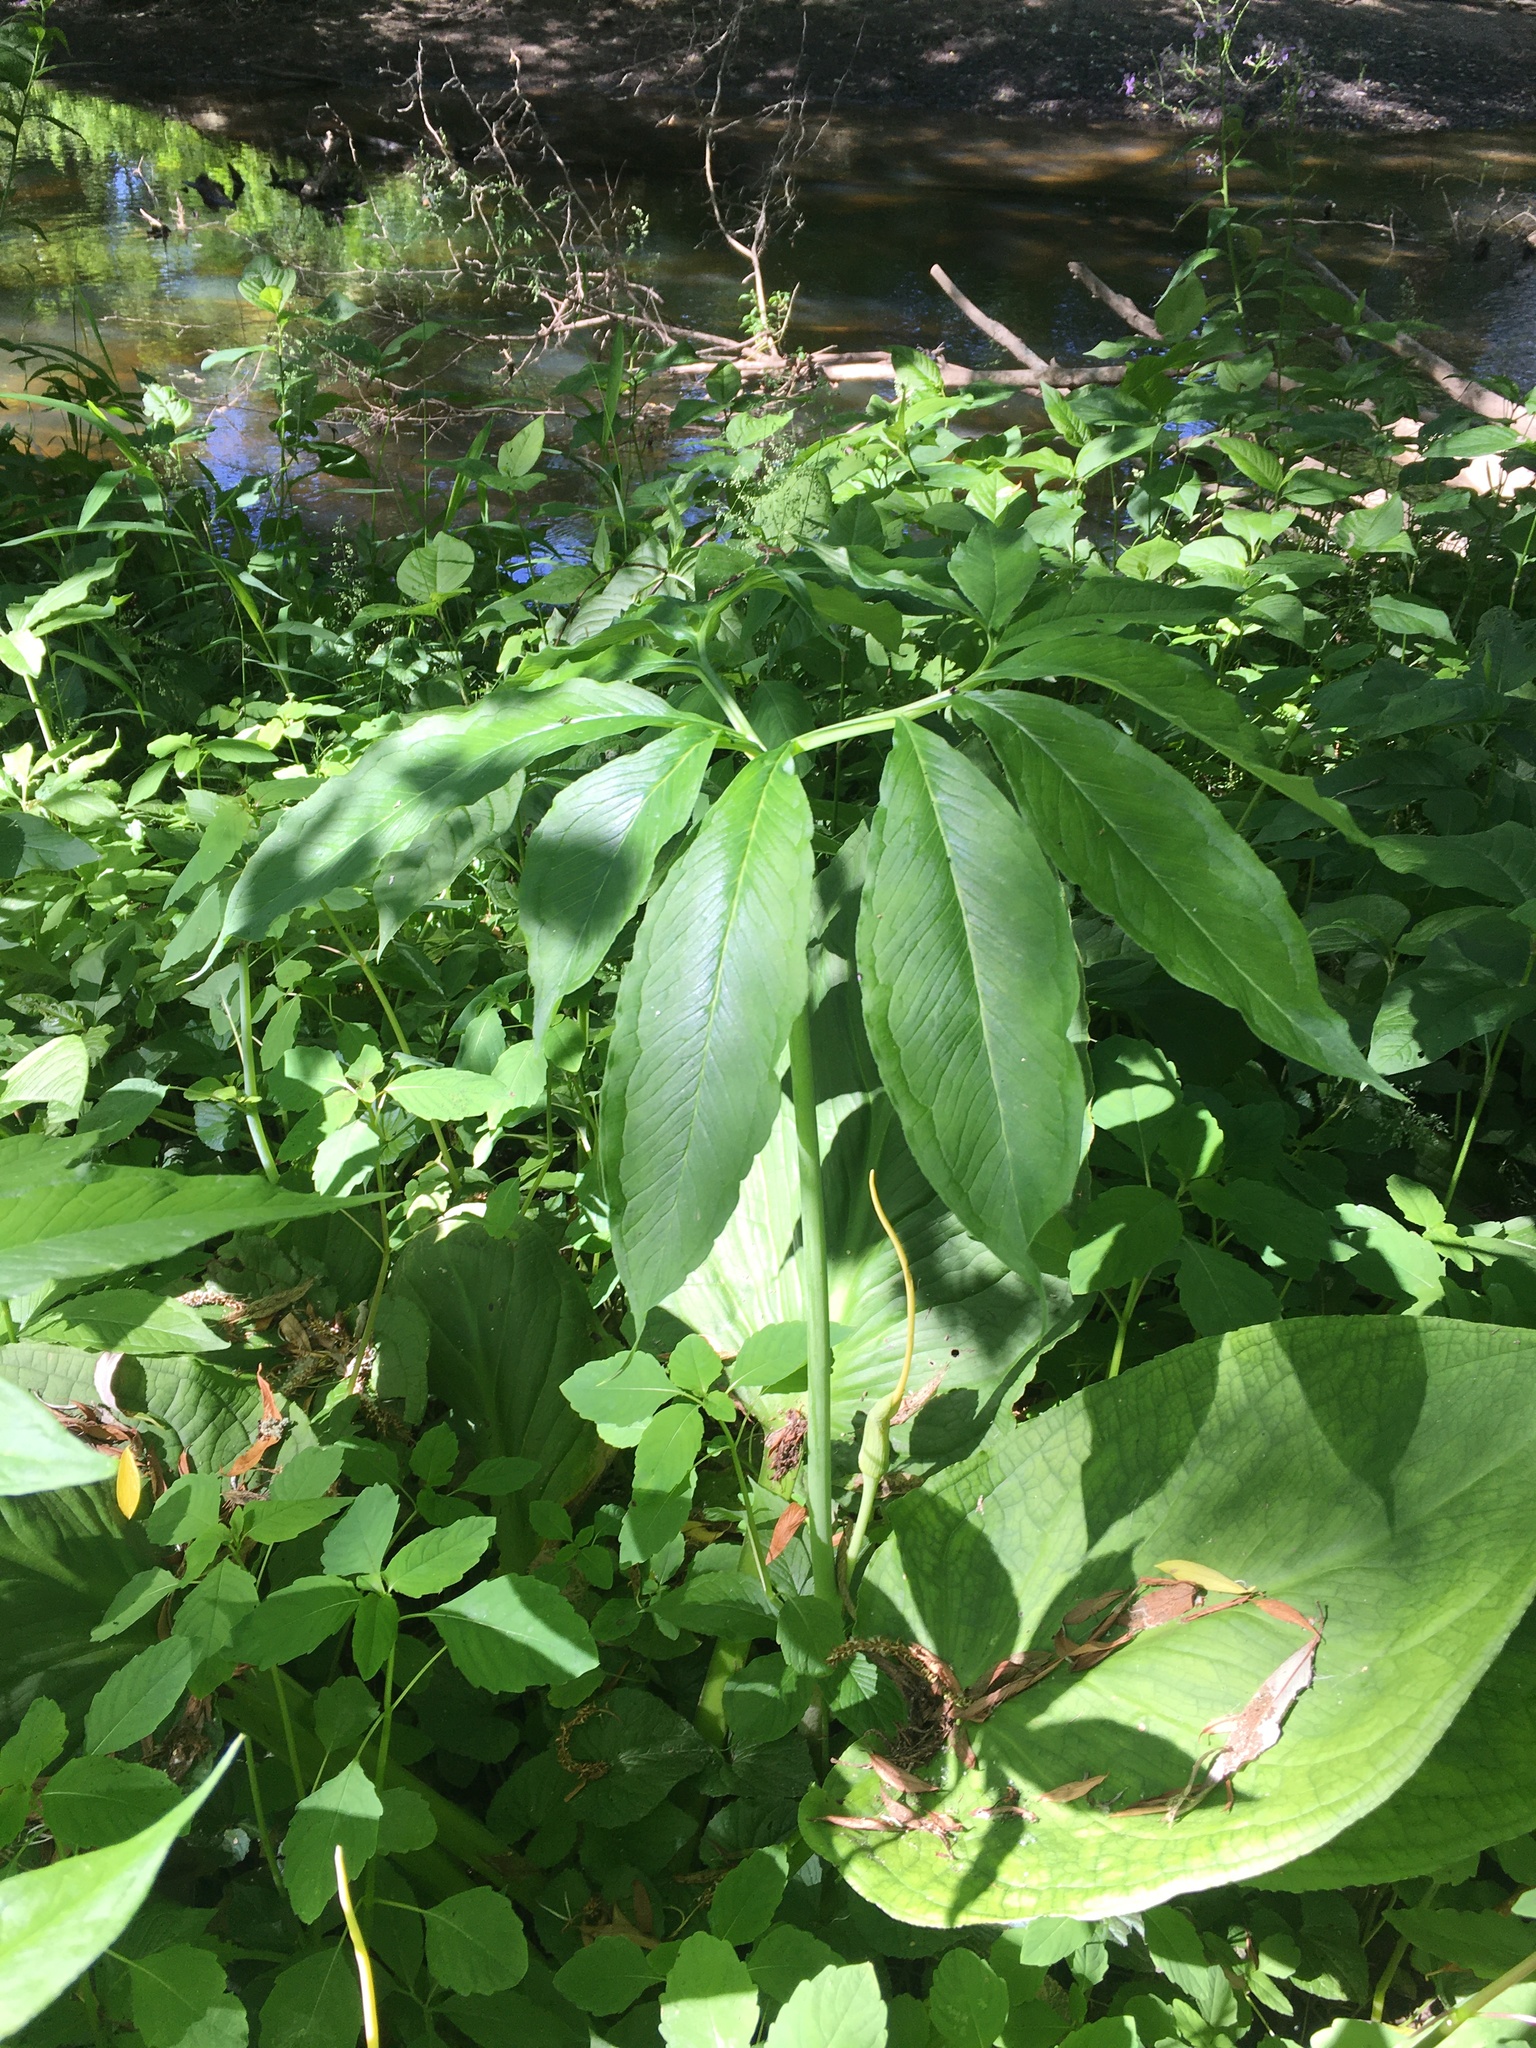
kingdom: Plantae
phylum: Tracheophyta
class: Liliopsida
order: Alismatales
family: Araceae
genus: Arisaema
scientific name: Arisaema dracontium
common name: Dragon-arum
